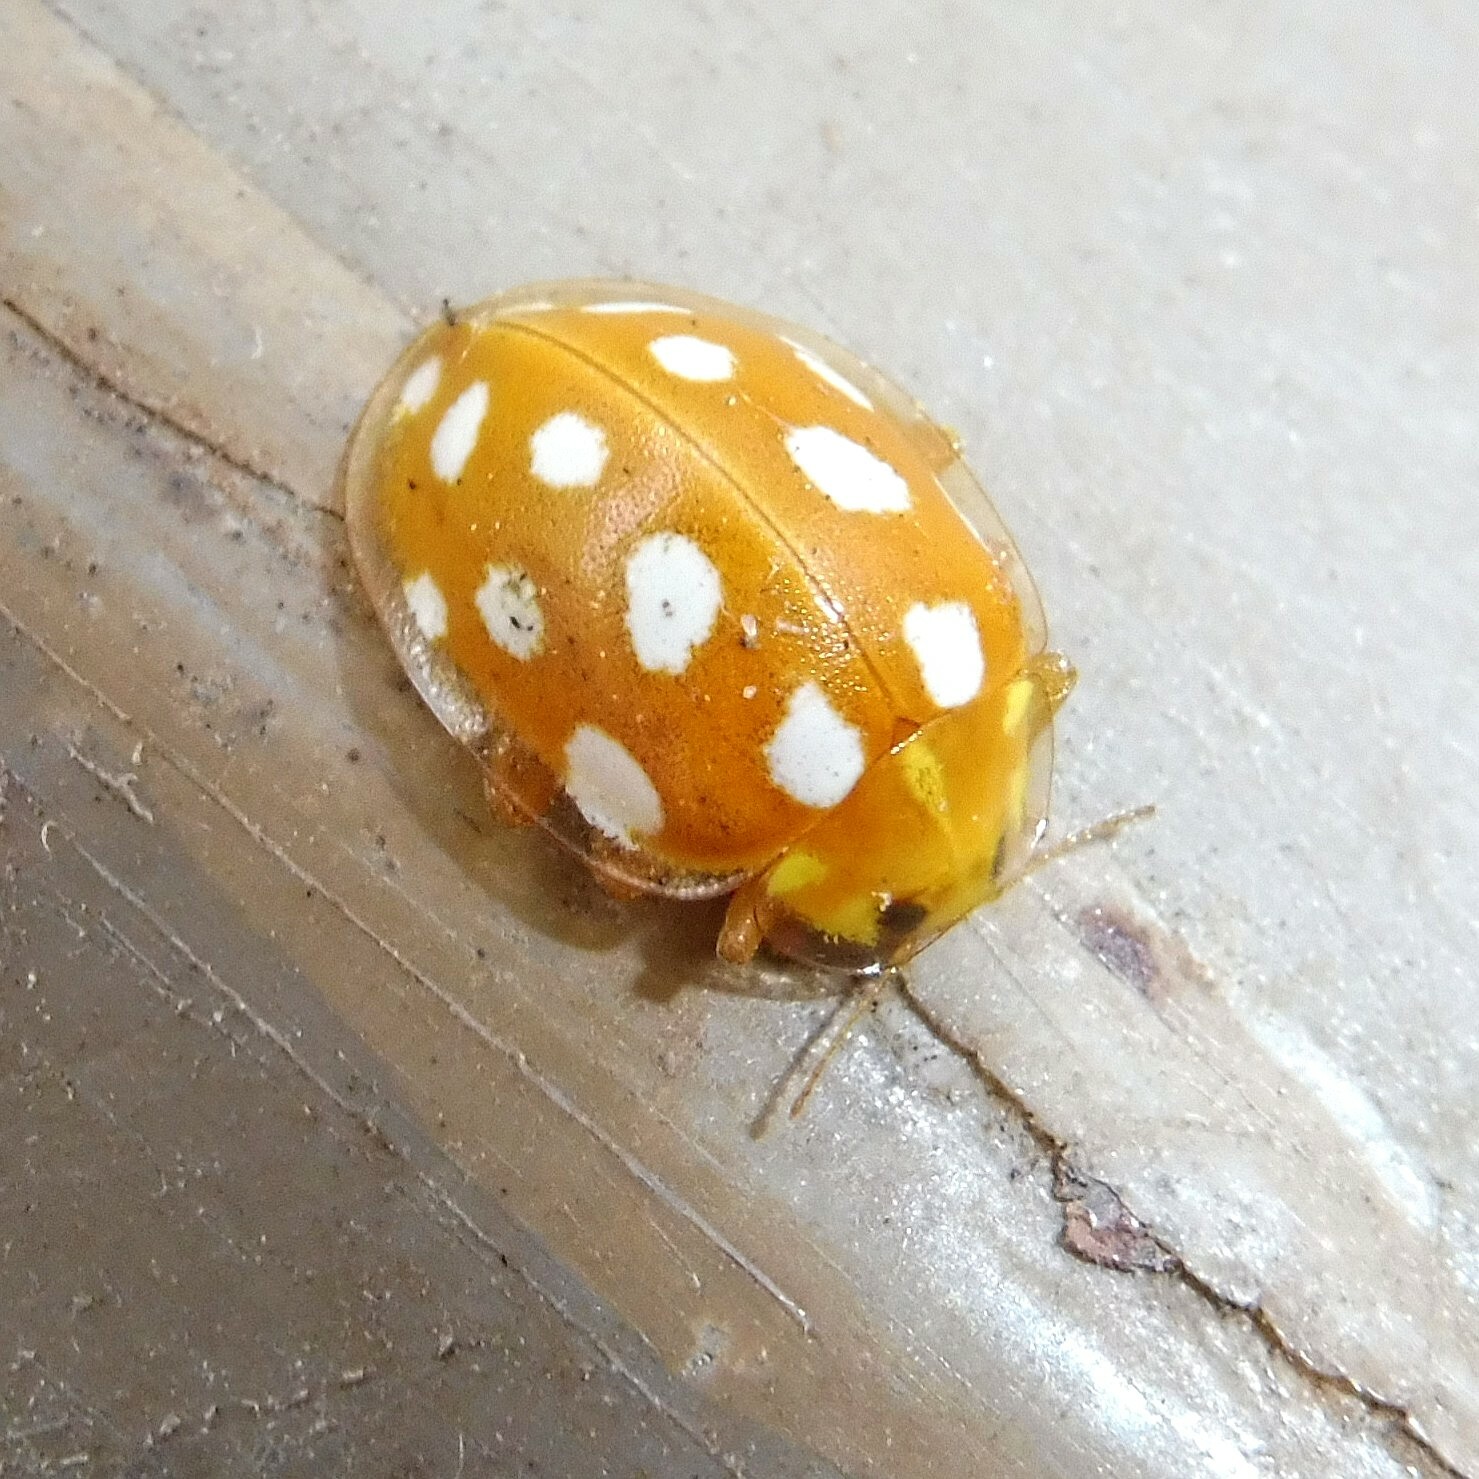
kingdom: Animalia
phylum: Arthropoda
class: Insecta
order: Coleoptera
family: Coccinellidae
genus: Halyzia
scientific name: Halyzia sedecimguttata
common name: Orange ladybird
